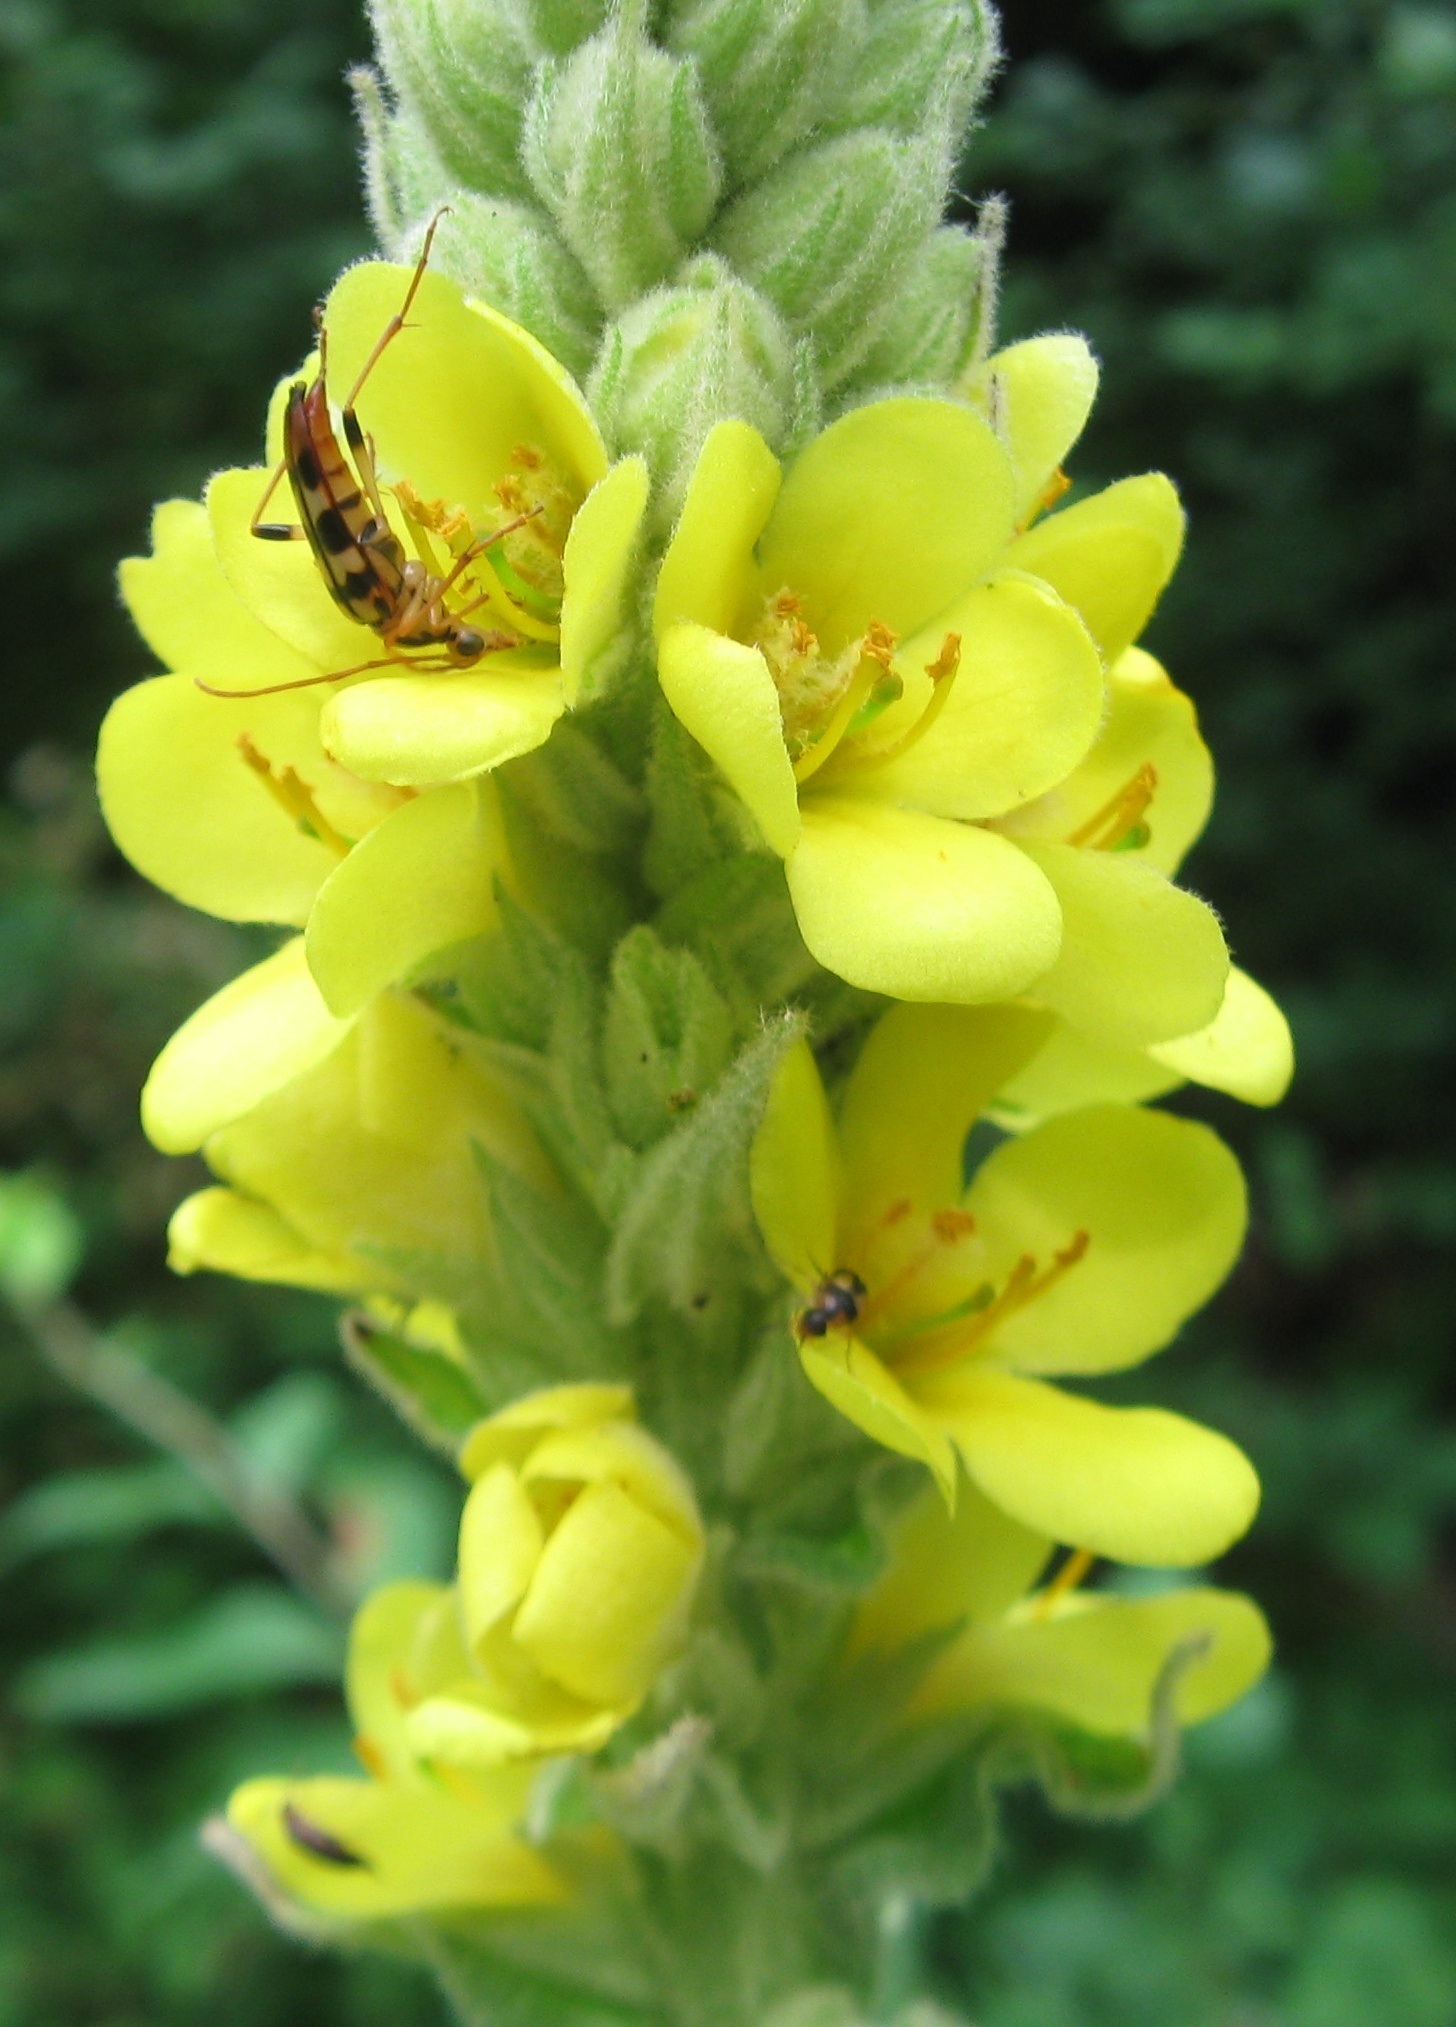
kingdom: Animalia
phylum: Arthropoda
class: Insecta
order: Coleoptera
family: Cerambycidae
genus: Strangalia
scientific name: Strangalia luteicornis
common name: Yellow-horned flower longhorn beetle
